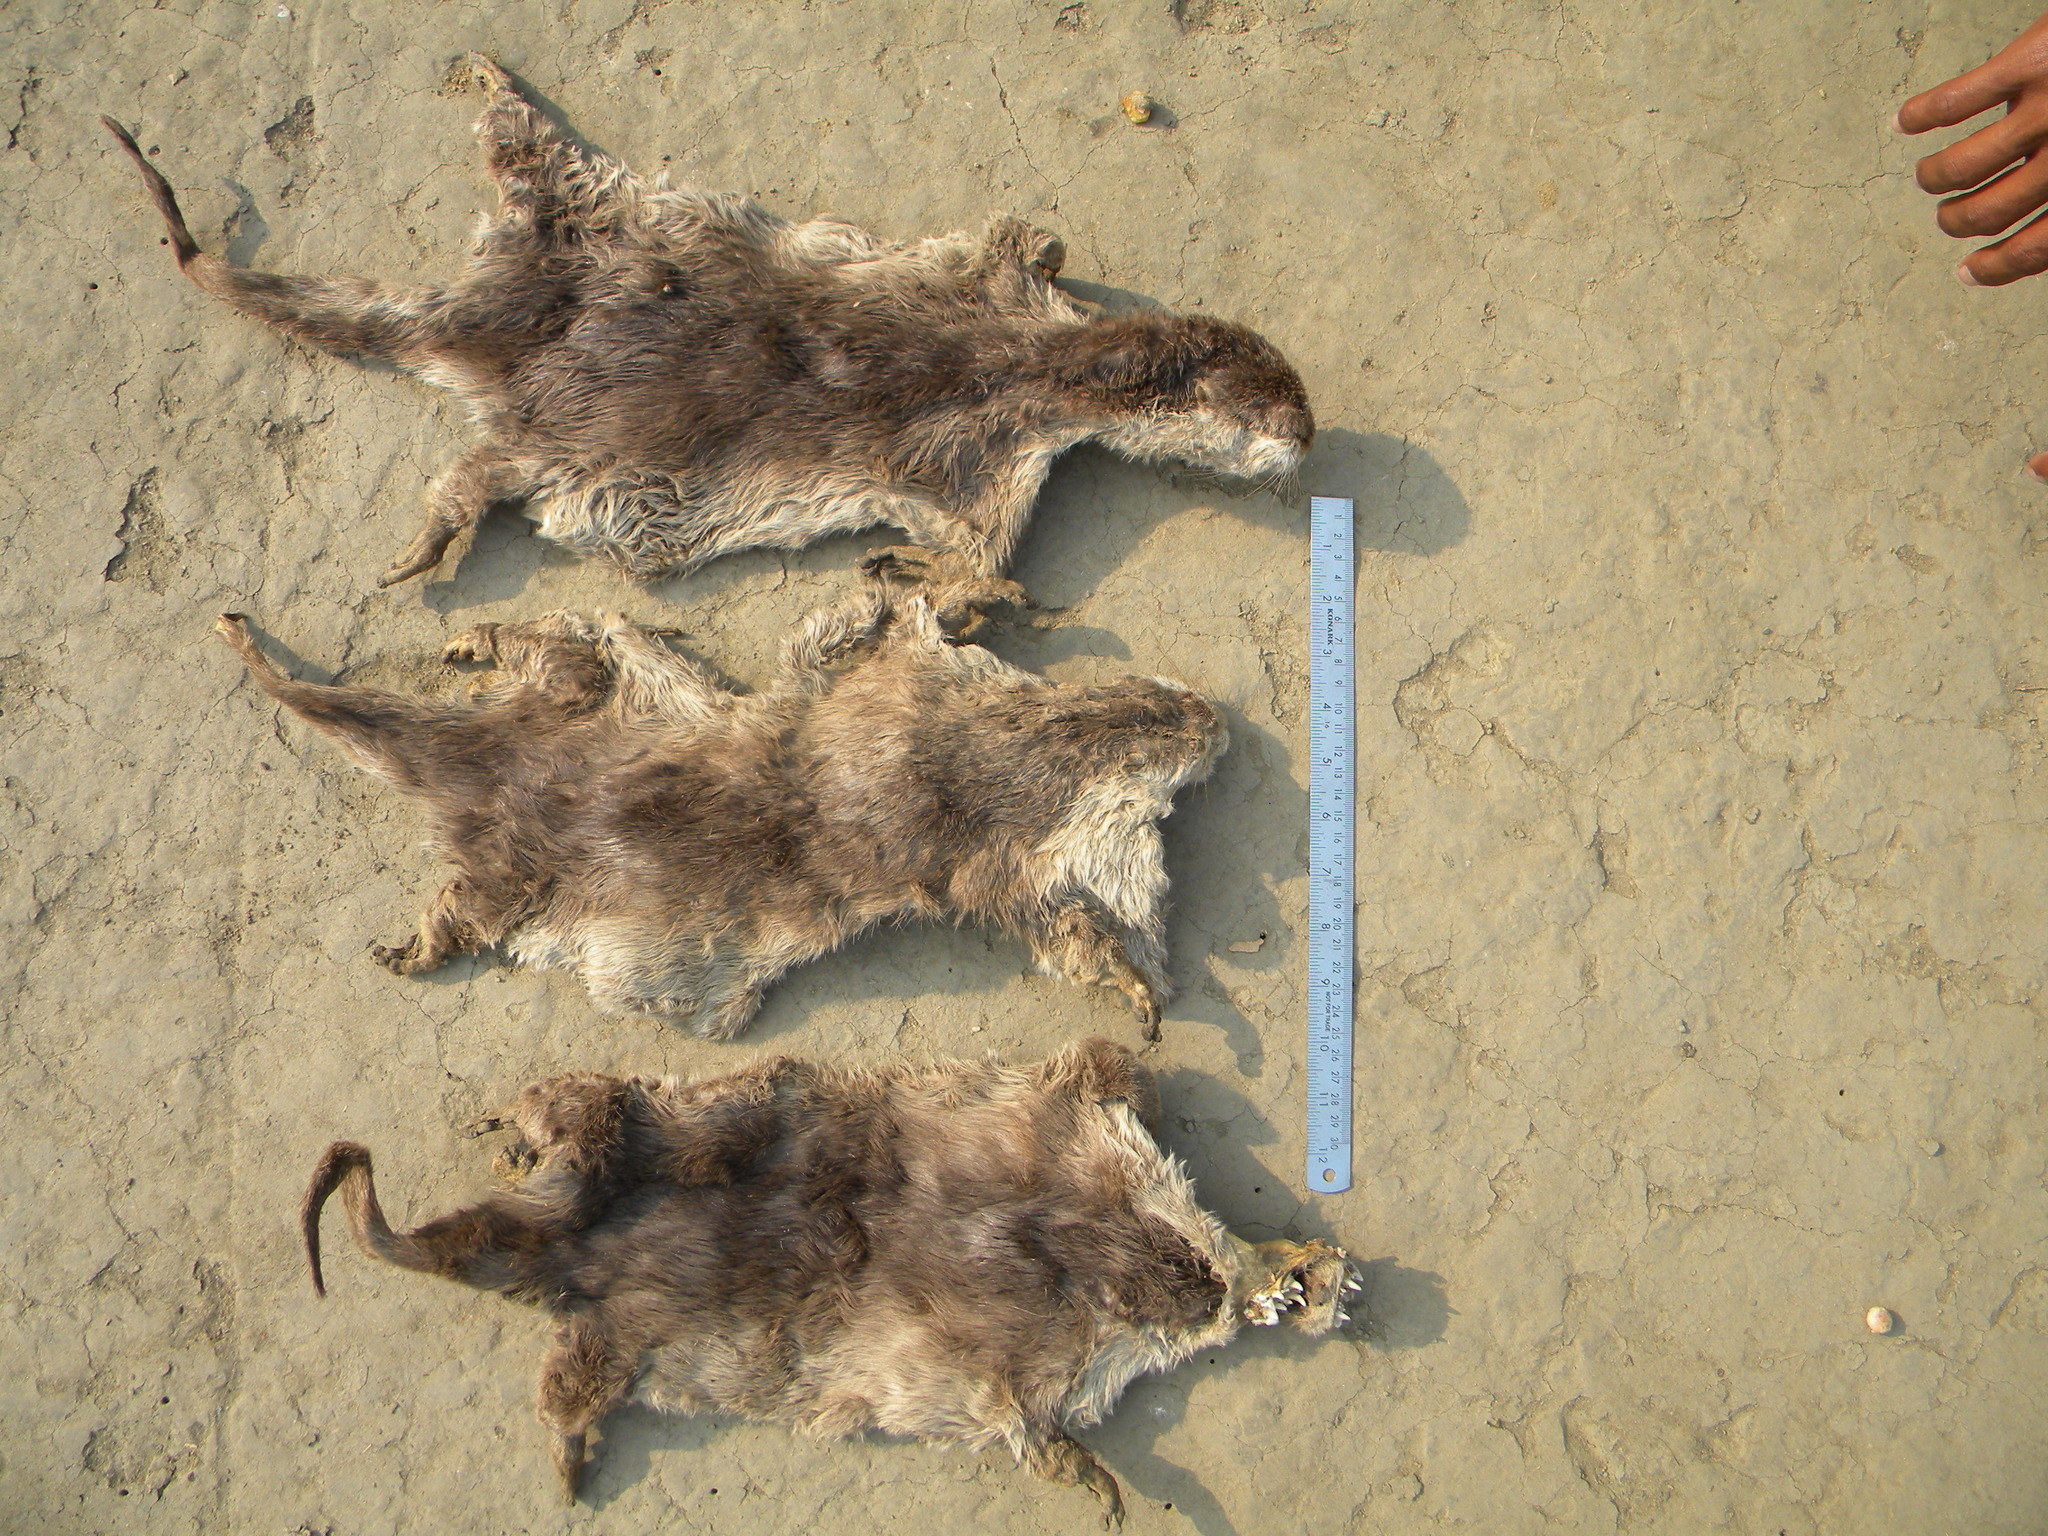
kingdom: Animalia
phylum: Chordata
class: Mammalia
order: Carnivora
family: Mustelidae
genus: Amblonyx
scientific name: Amblonyx cinereus
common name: Oriental small-clawed otter
